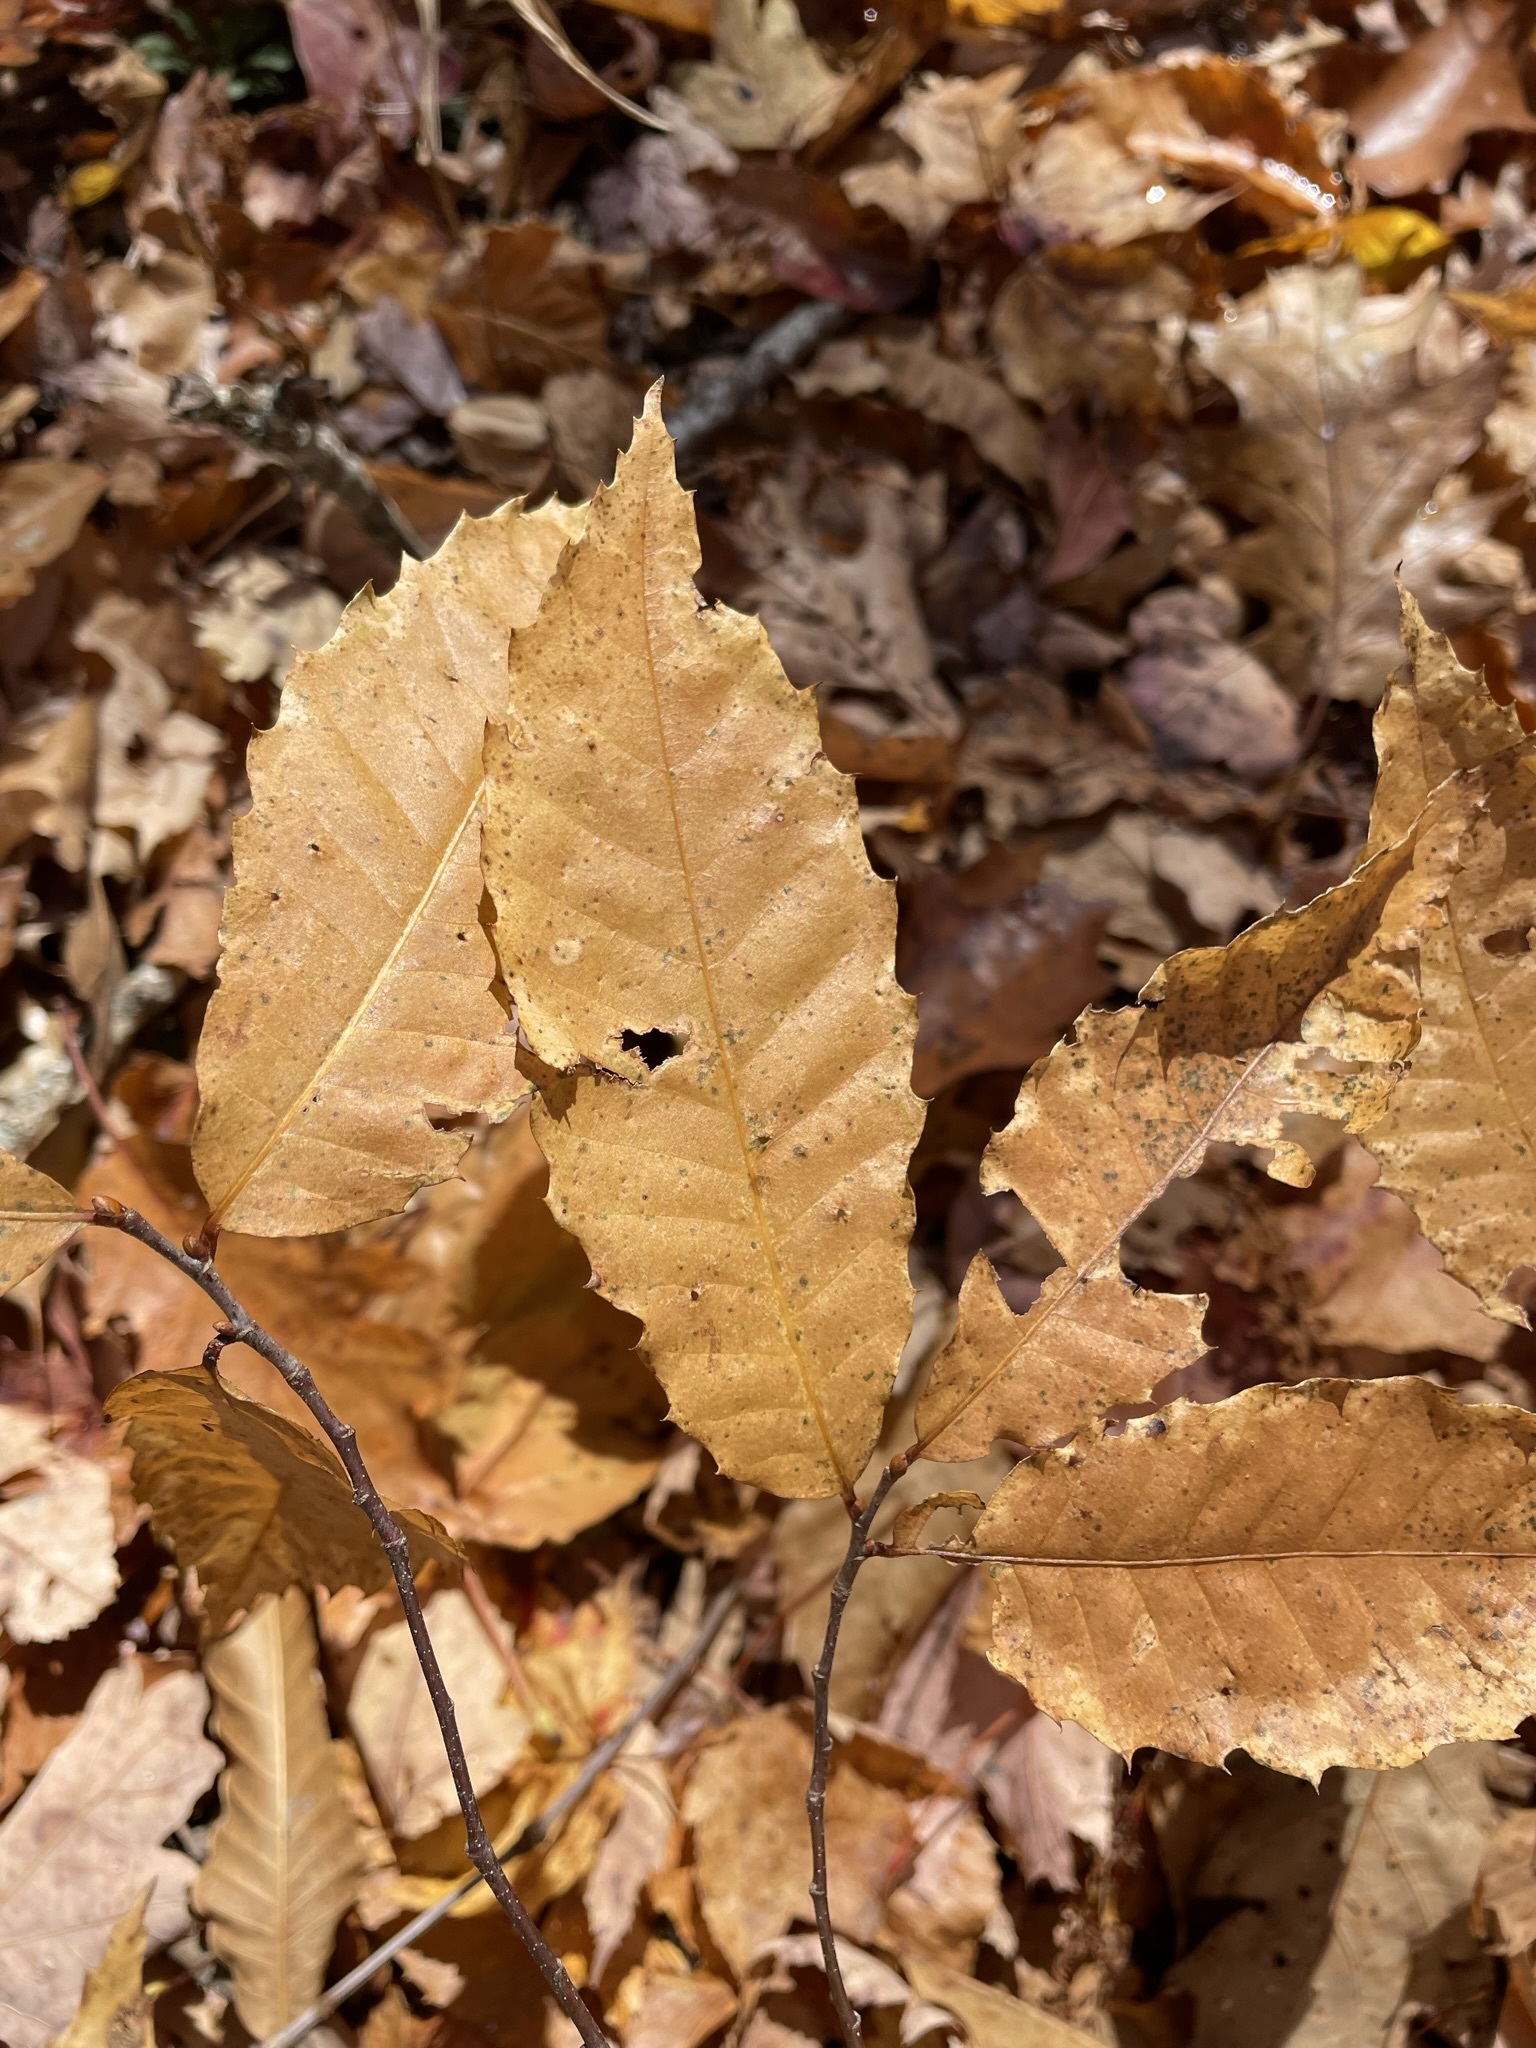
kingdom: Plantae
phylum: Tracheophyta
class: Magnoliopsida
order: Fagales
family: Fagaceae
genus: Castanea
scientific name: Castanea dentata
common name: American chestnut
